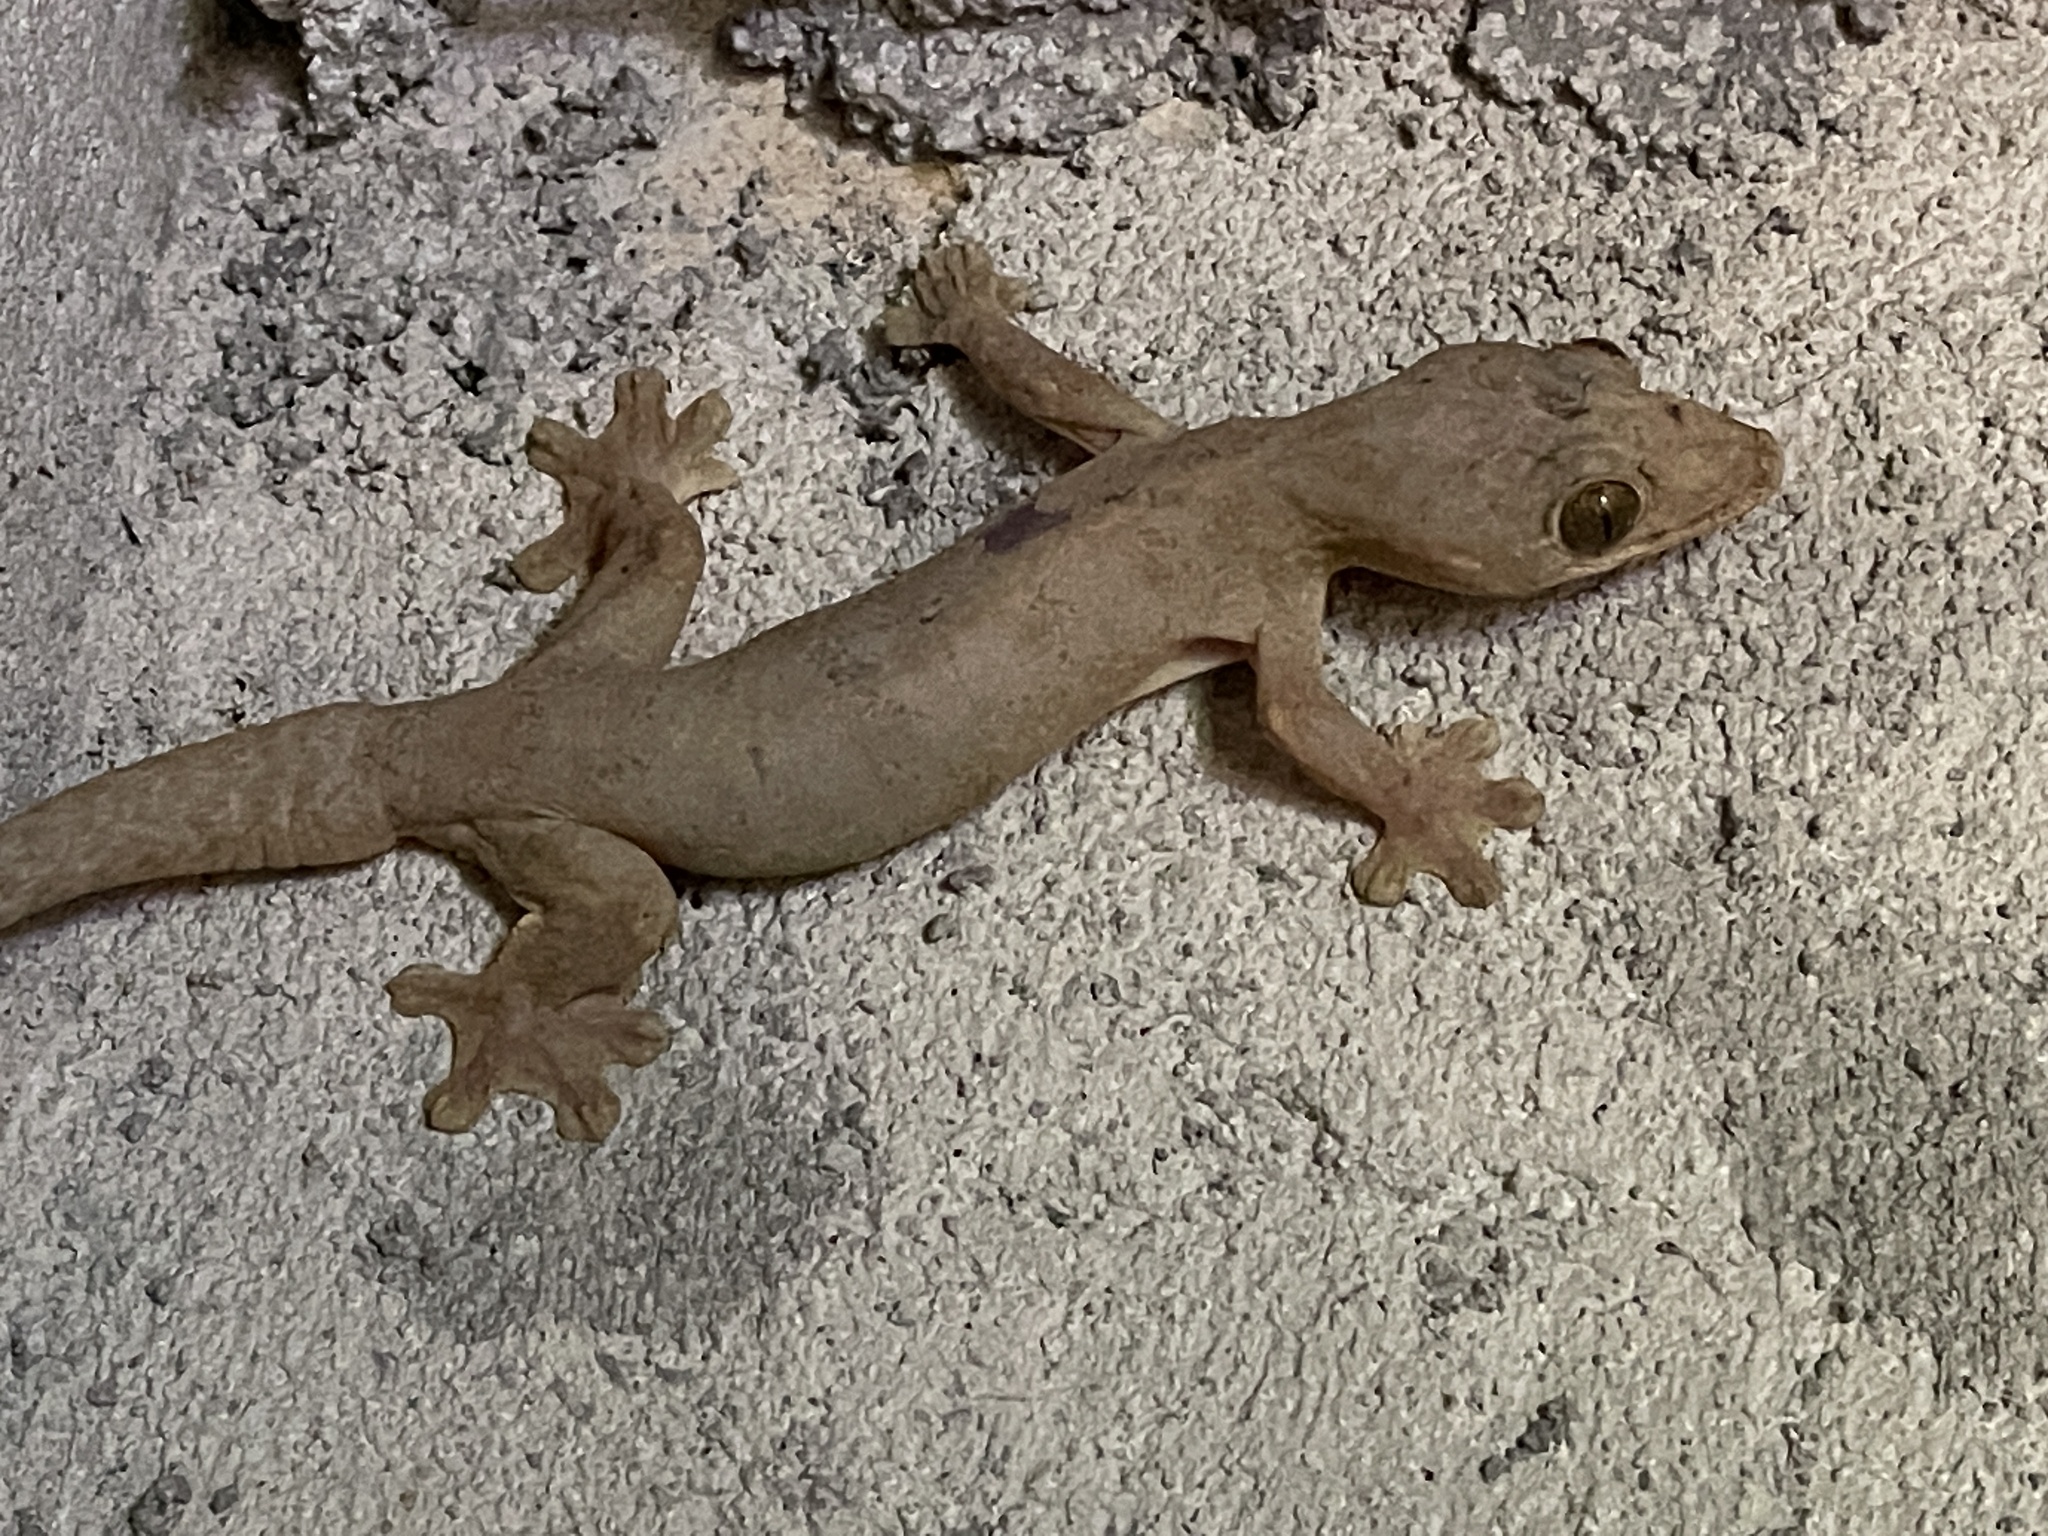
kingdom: Animalia
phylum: Chordata
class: Squamata
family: Phyllodactylidae
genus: Thecadactylus
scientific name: Thecadactylus rapicauda
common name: Turnip-tailed gecko
